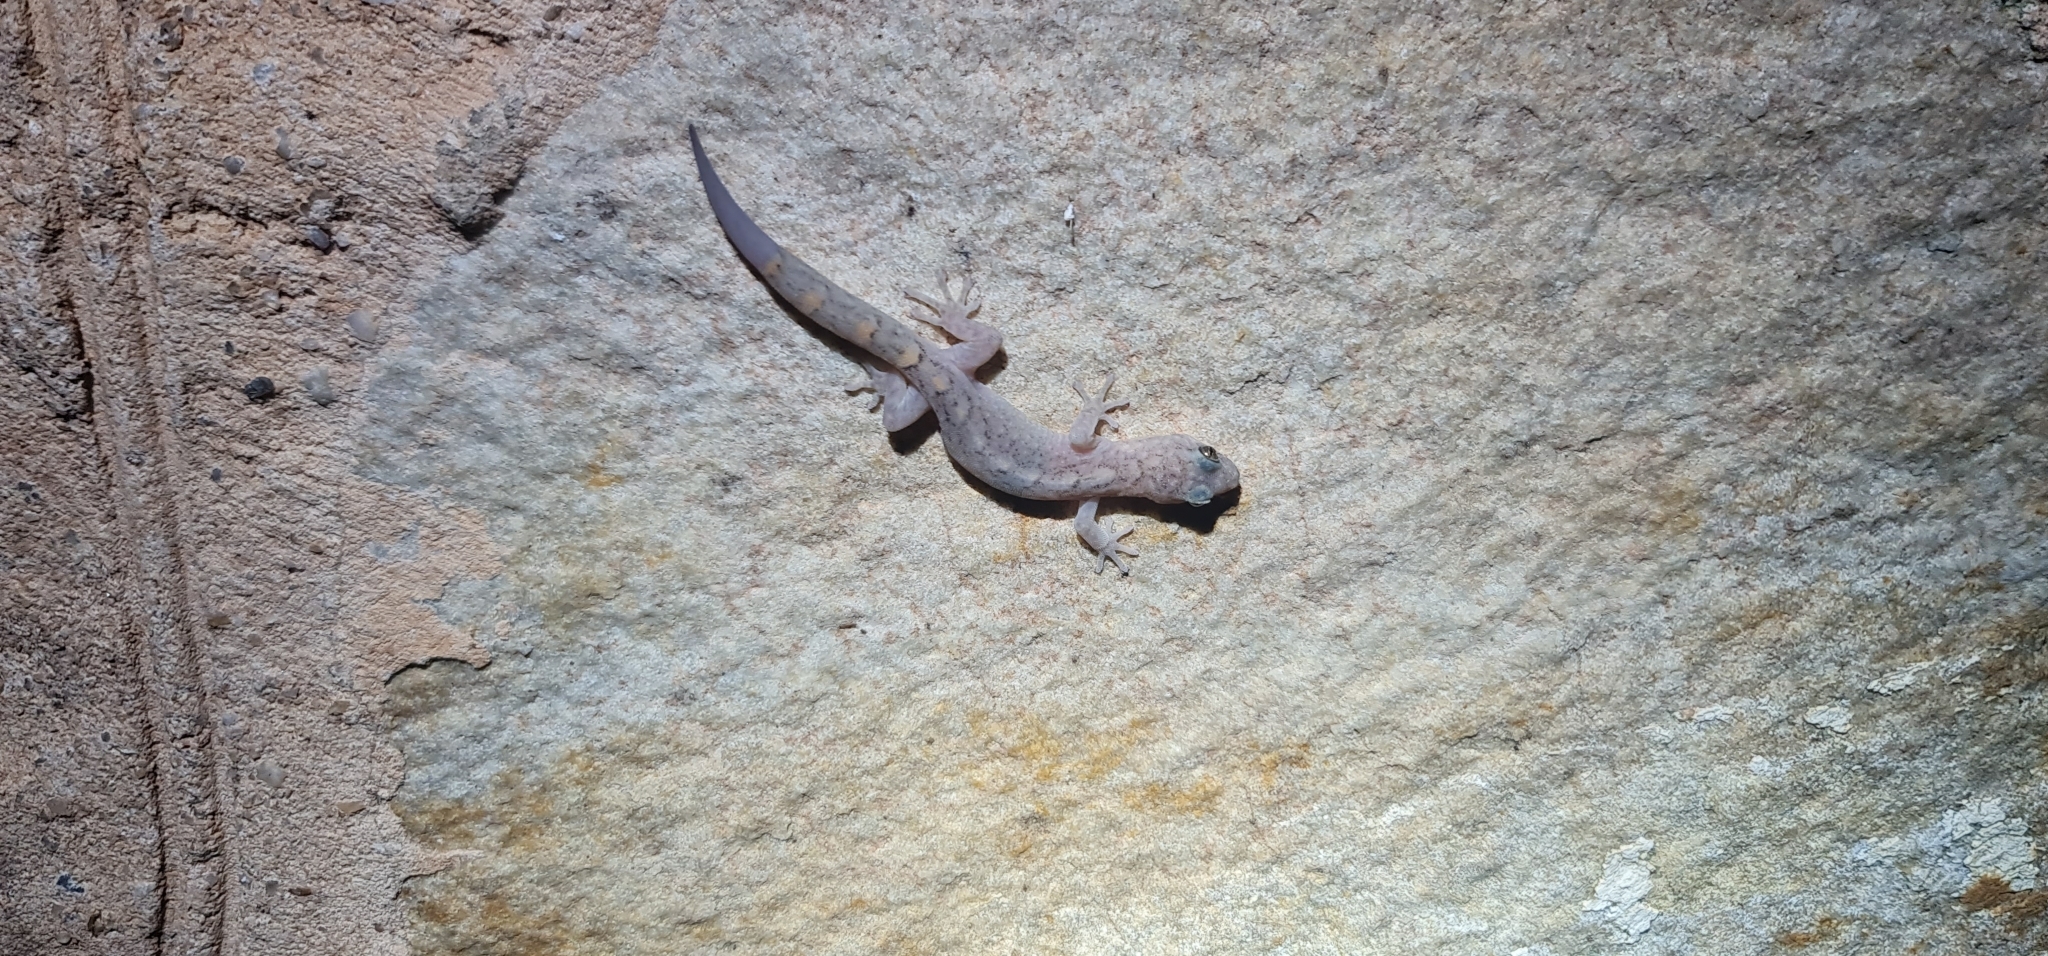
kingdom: Animalia
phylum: Chordata
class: Squamata
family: Gekkonidae
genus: Christinus
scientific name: Christinus marmoratus
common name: Marbled gecko
